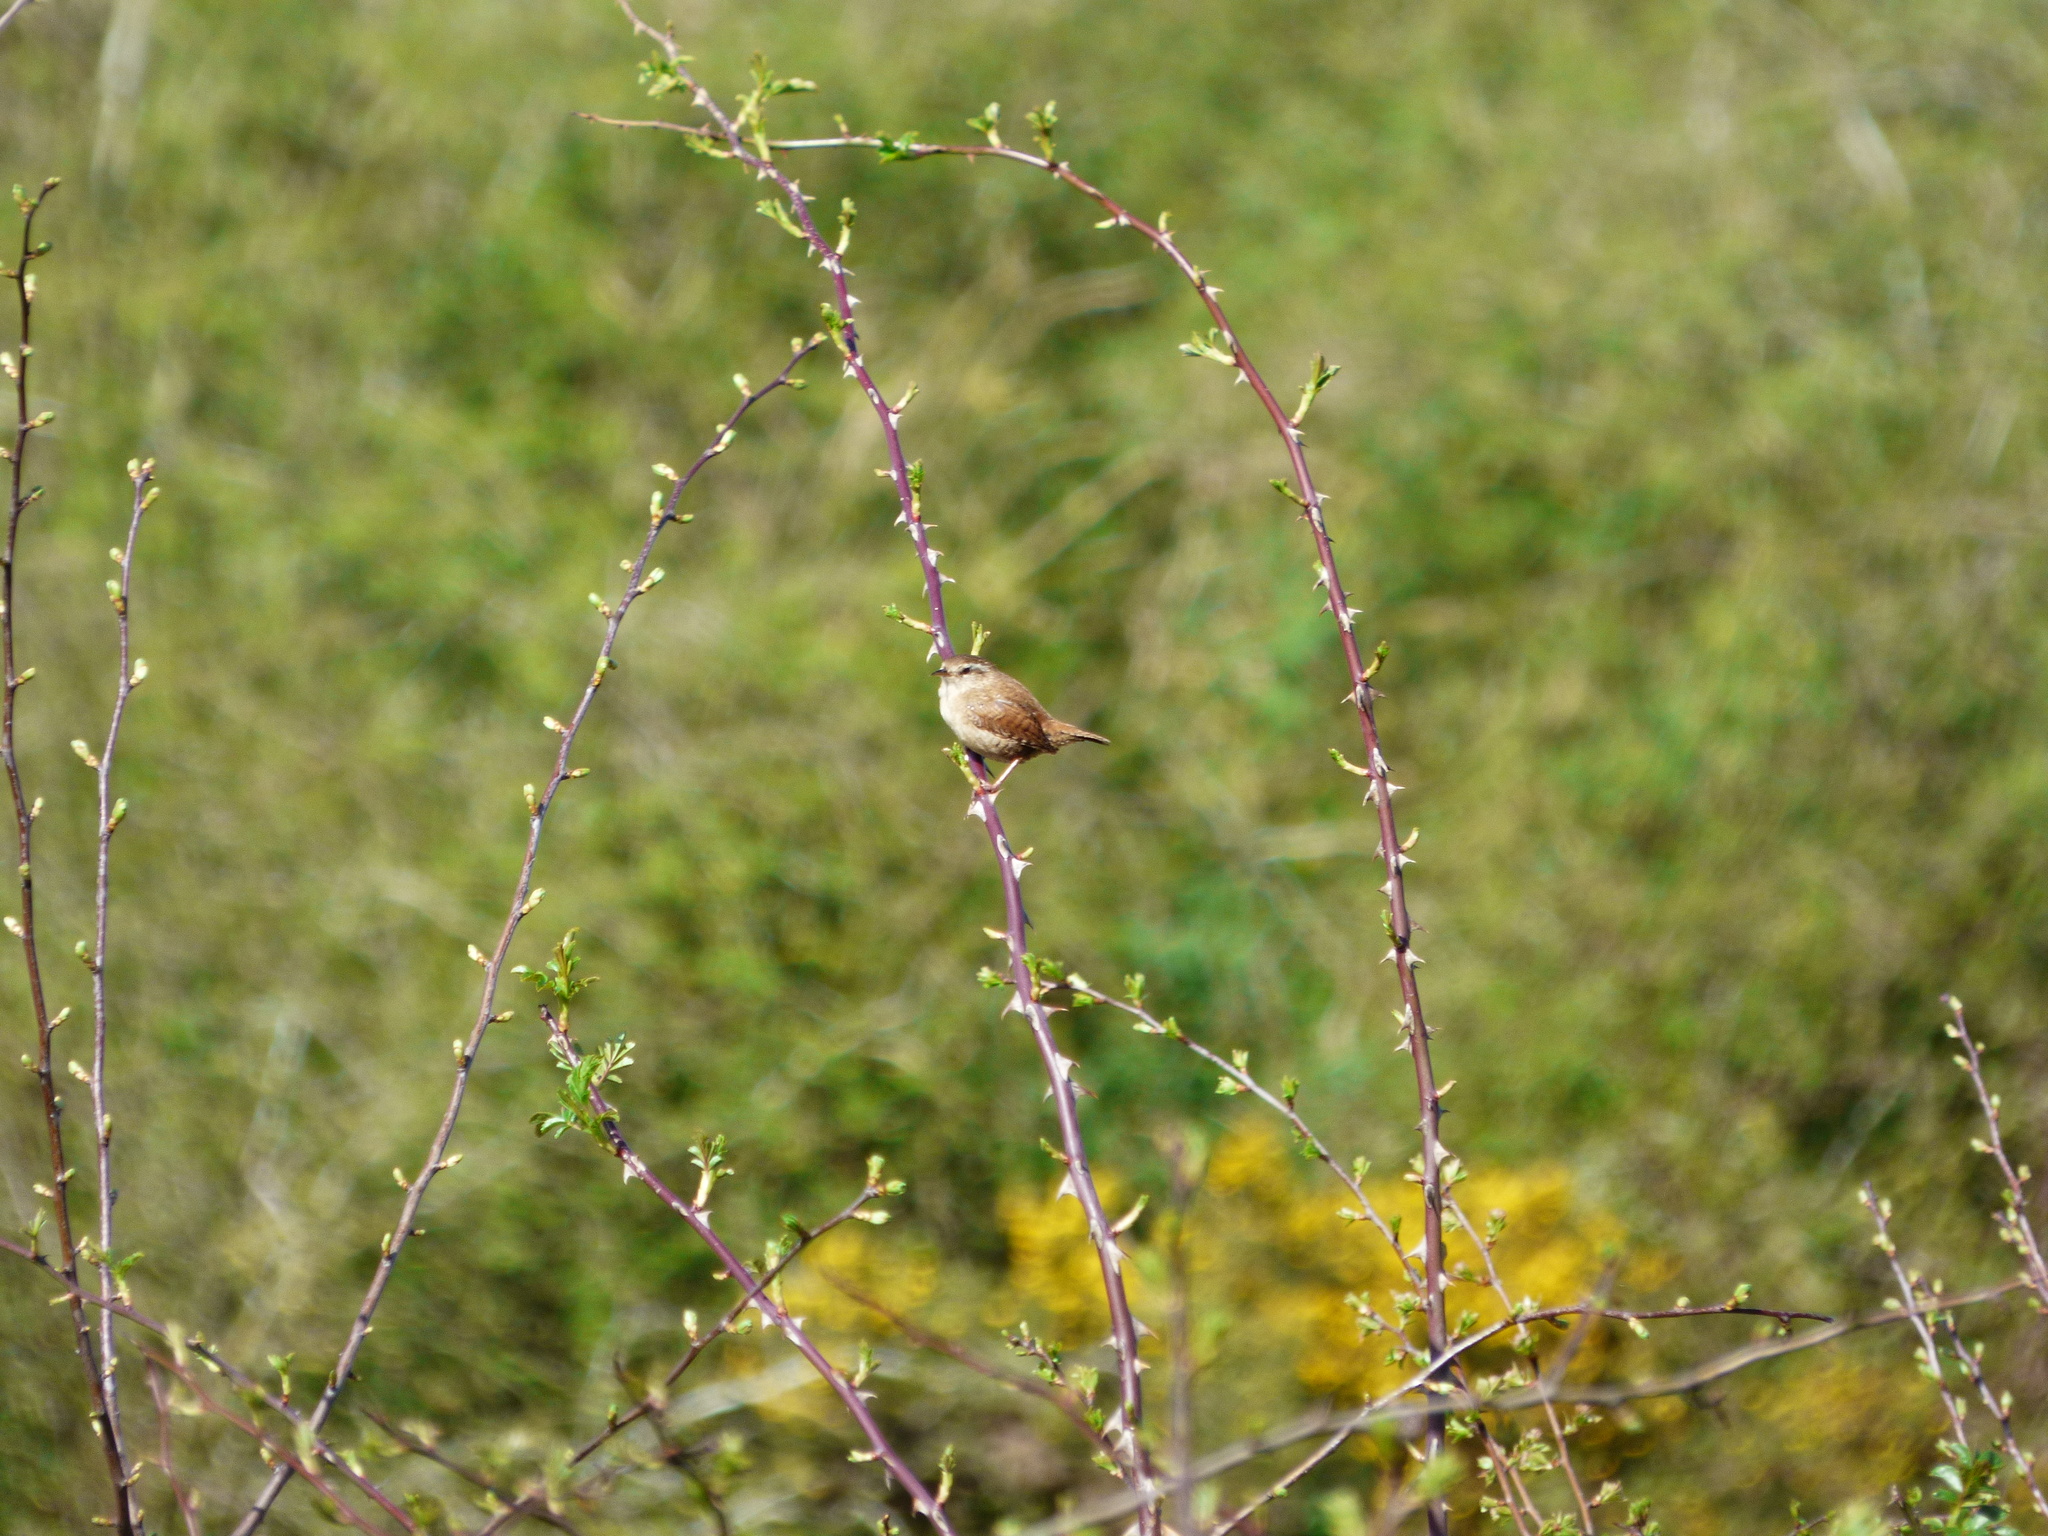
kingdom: Animalia
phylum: Chordata
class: Aves
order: Passeriformes
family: Troglodytidae
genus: Troglodytes
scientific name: Troglodytes troglodytes
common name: Eurasian wren
